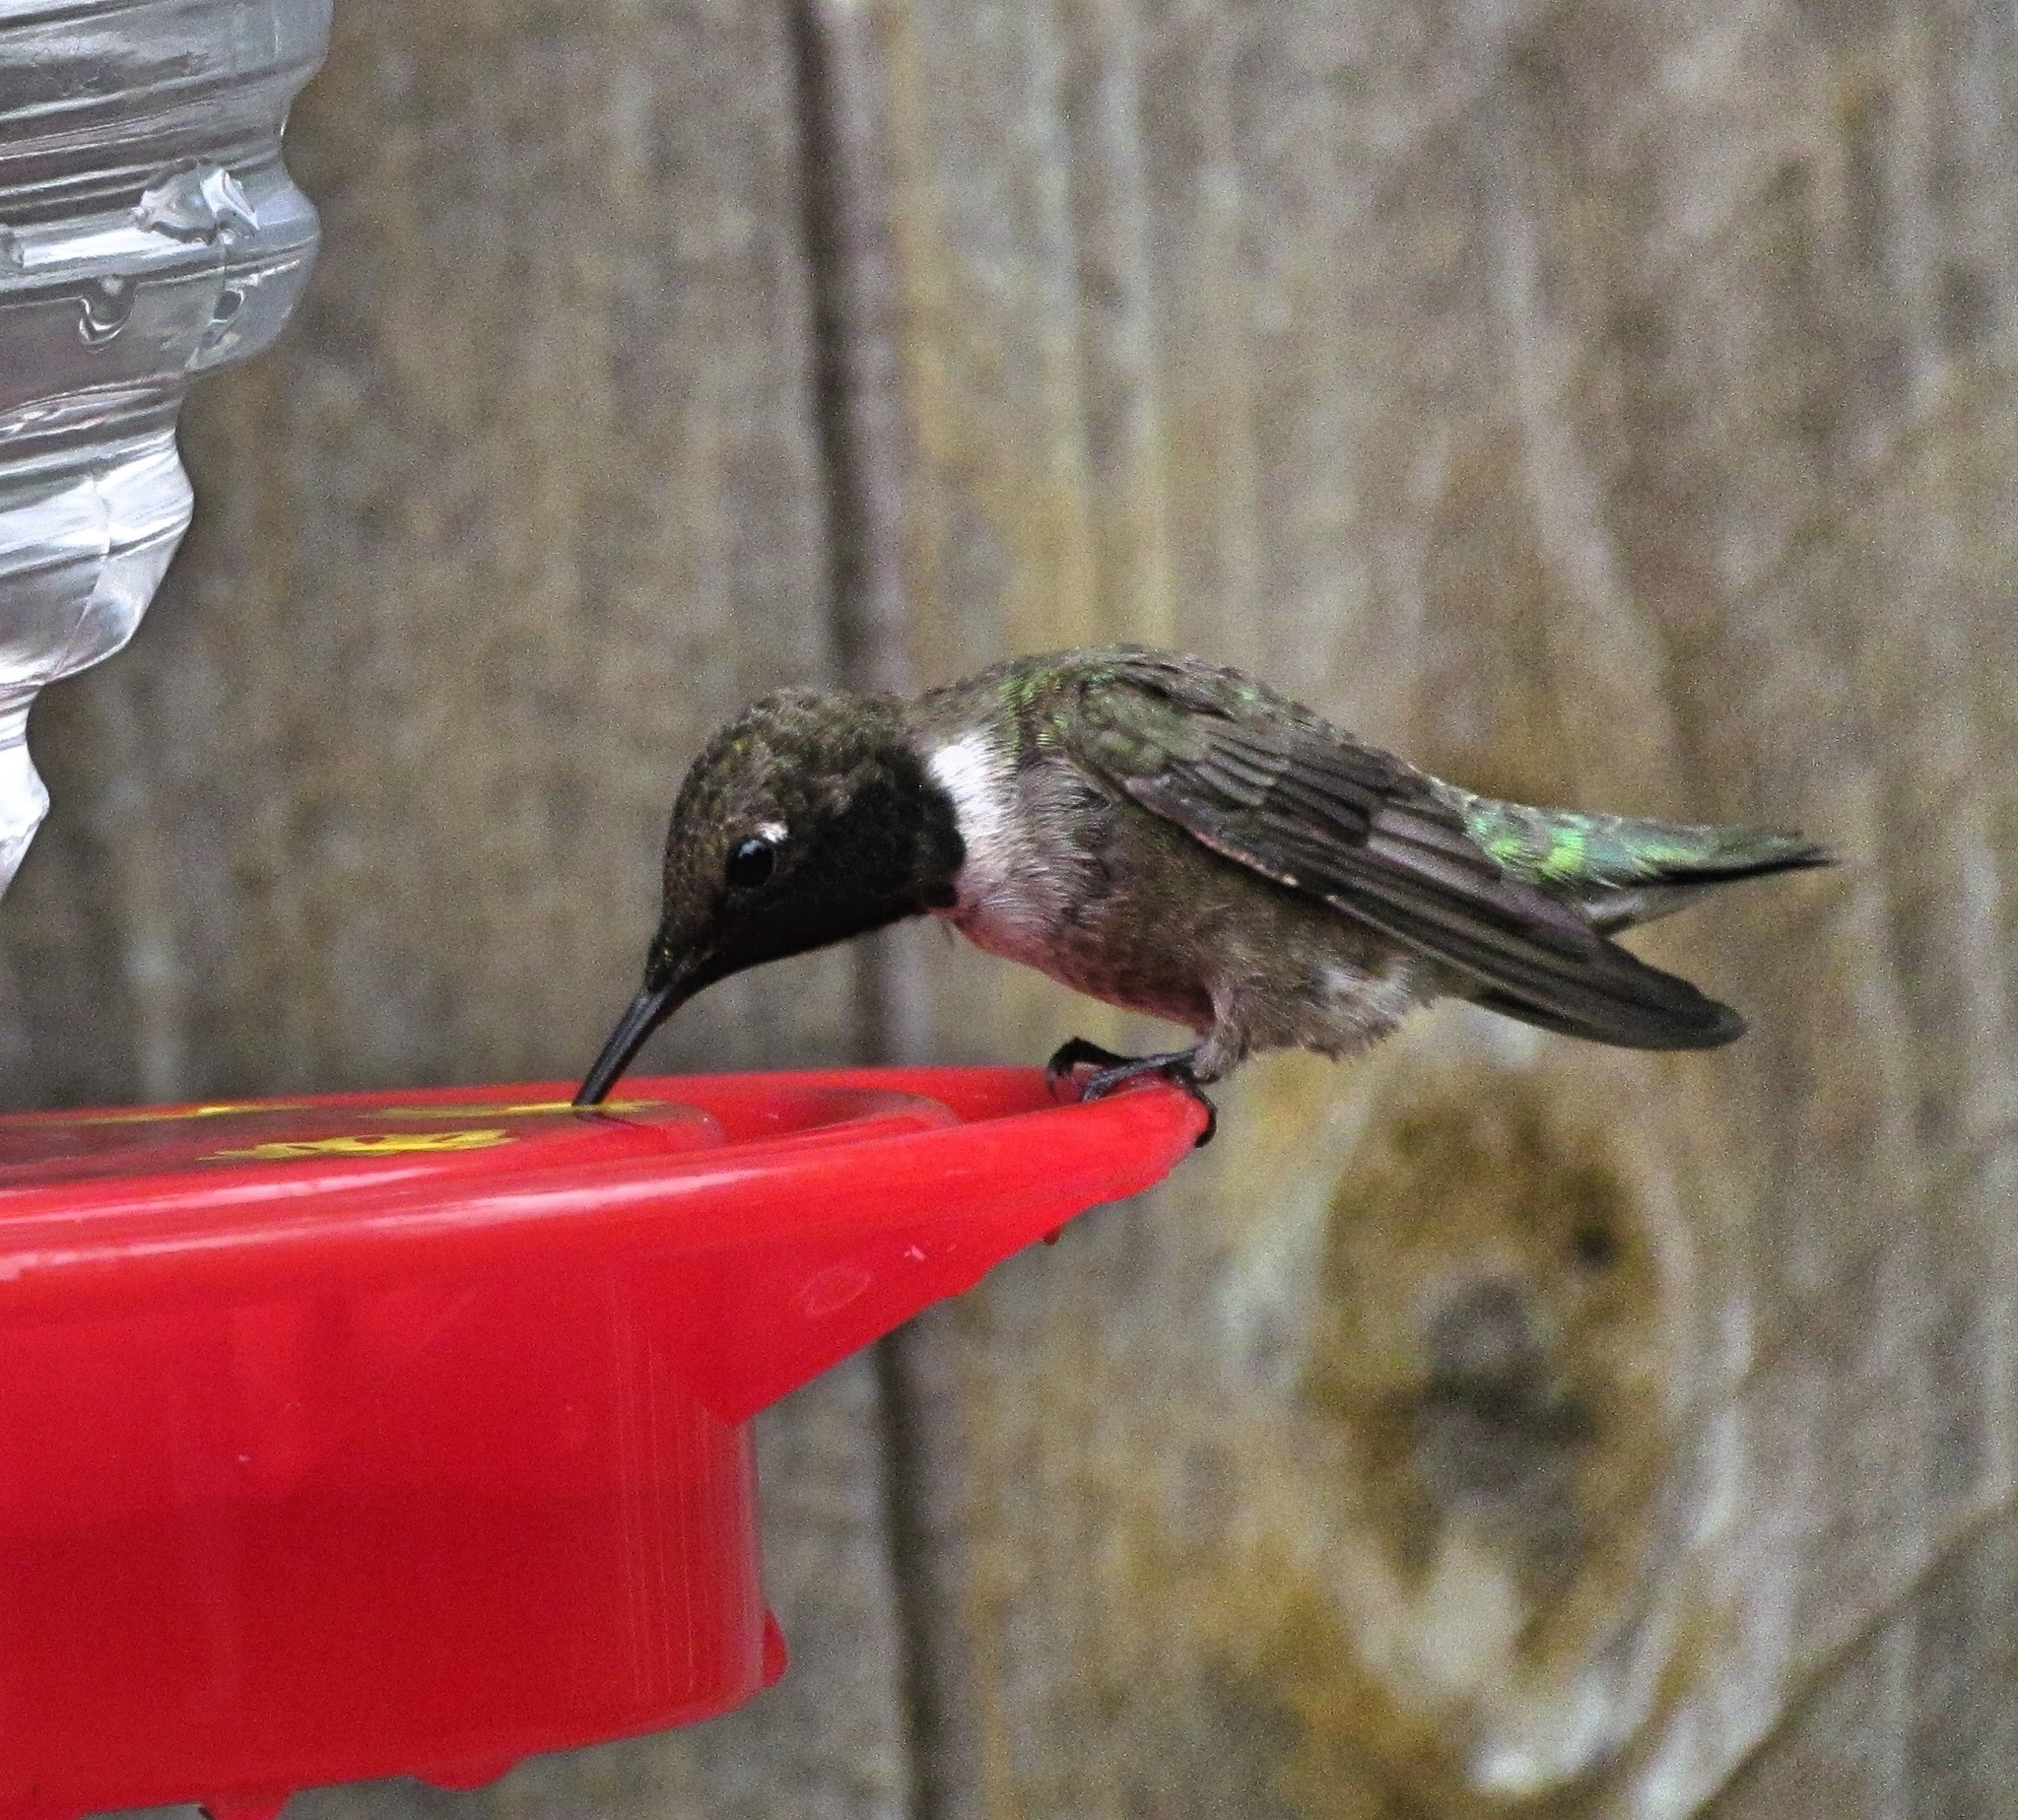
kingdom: Animalia
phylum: Chordata
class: Aves
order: Apodiformes
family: Trochilidae
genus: Archilochus
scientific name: Archilochus alexandri
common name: Black-chinned hummingbird
